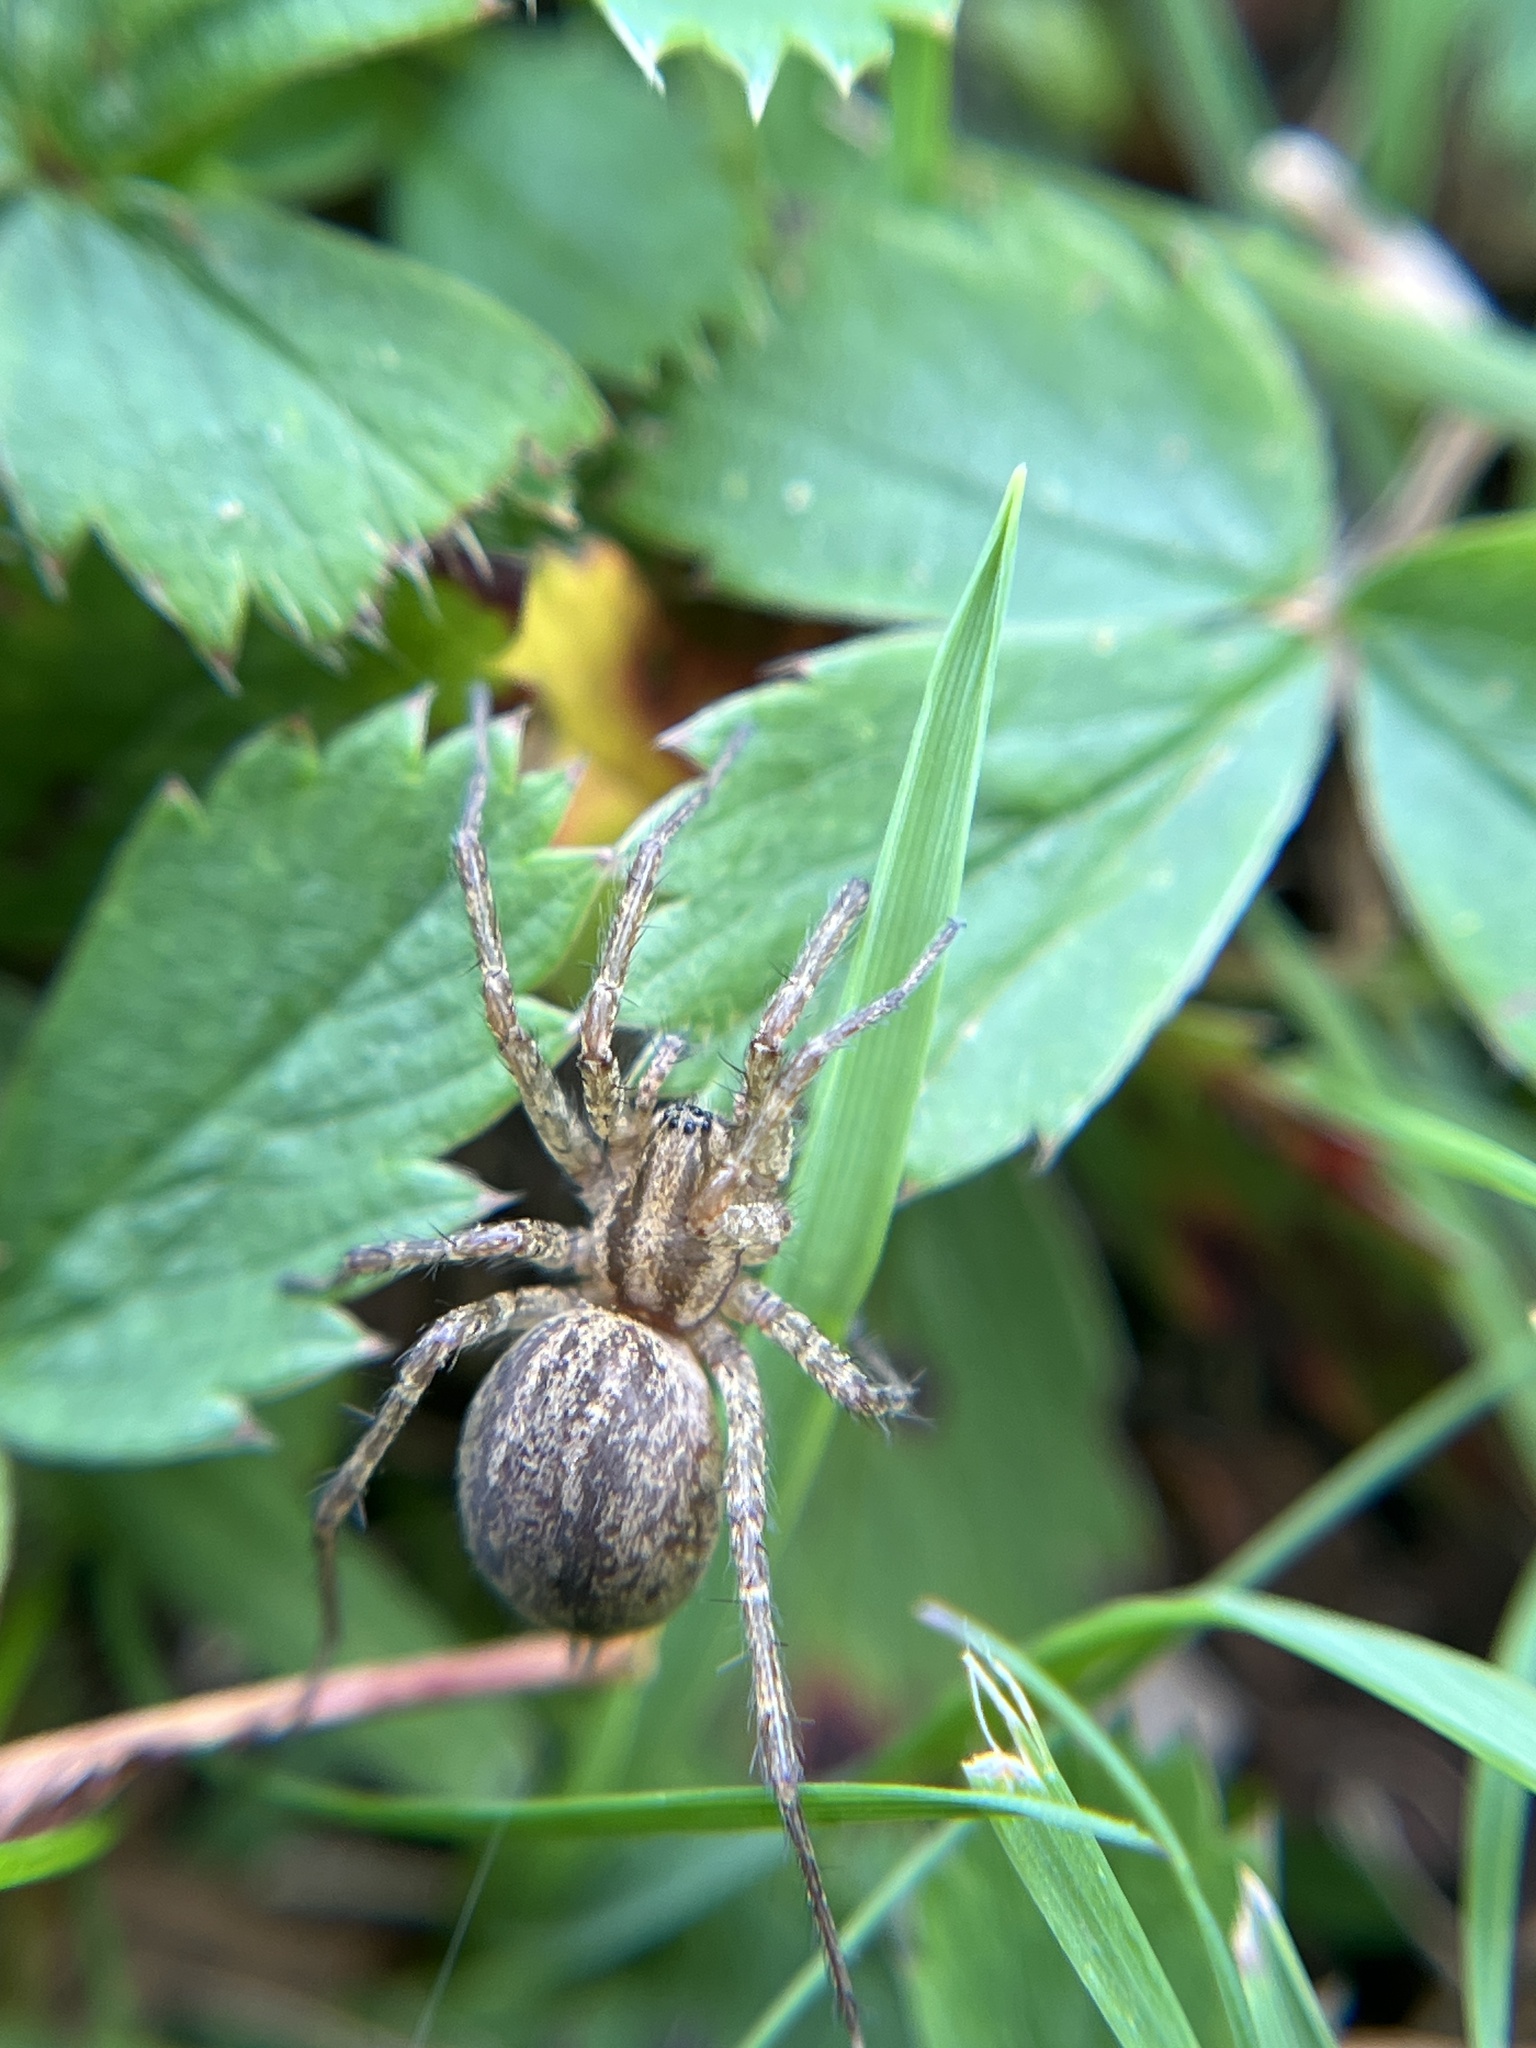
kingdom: Animalia
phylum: Arthropoda
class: Arachnida
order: Araneae
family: Agelenidae
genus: Agelenopsis
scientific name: Agelenopsis
